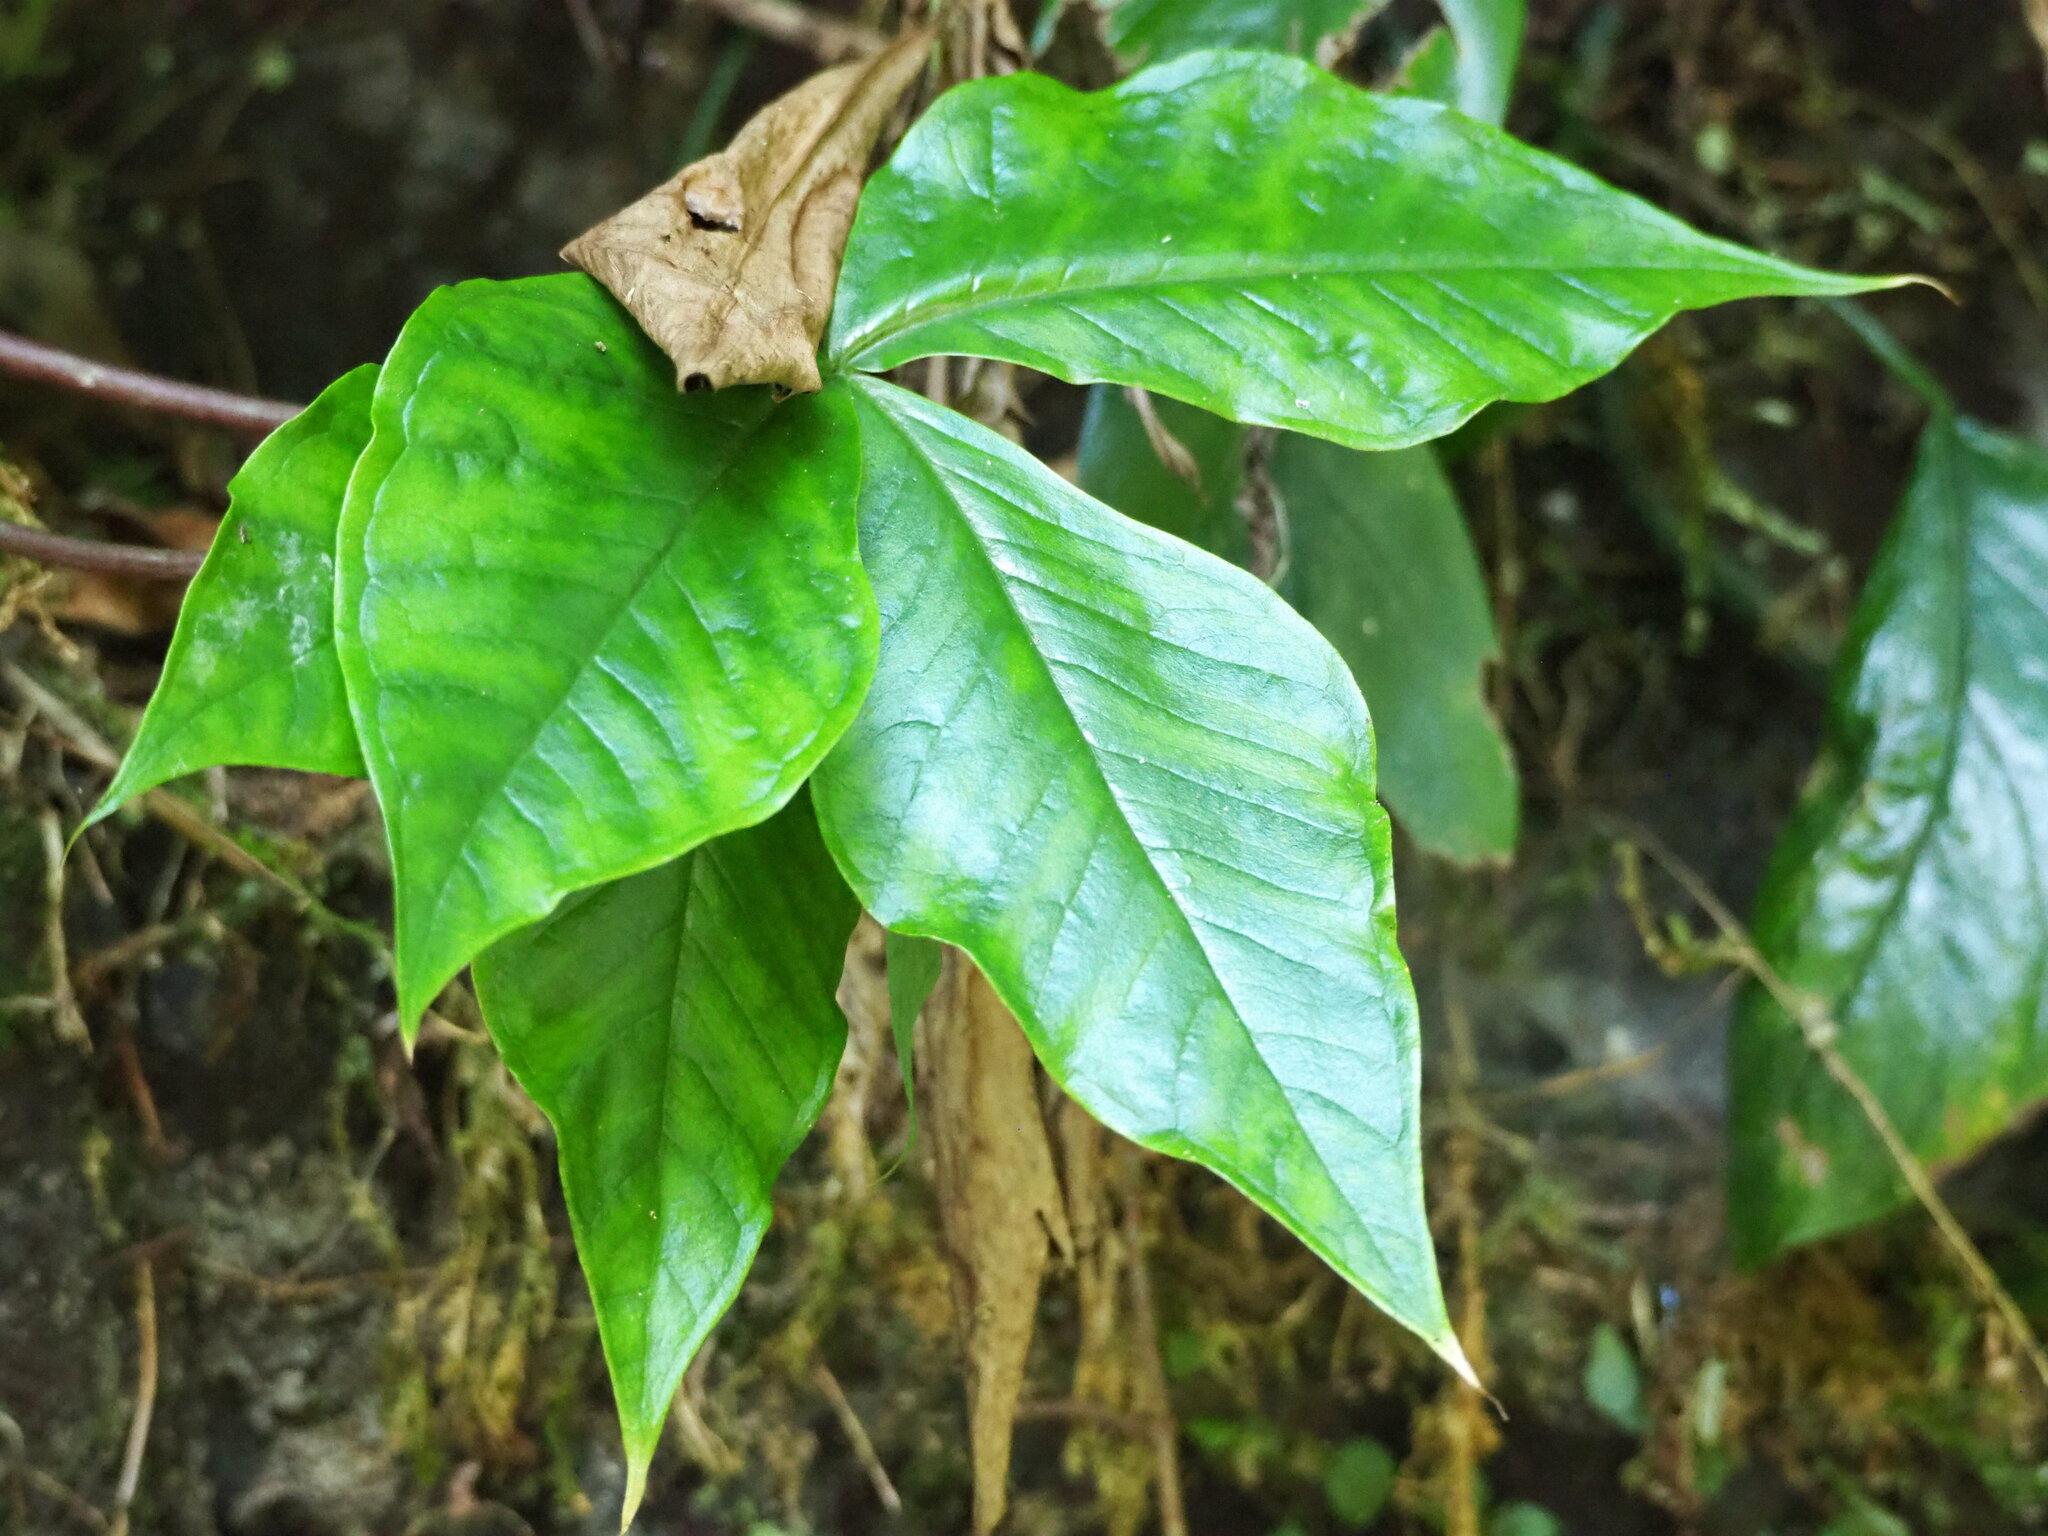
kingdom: Plantae
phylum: Tracheophyta
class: Liliopsida
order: Alismatales
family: Araceae
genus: Arisaema
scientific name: Arisaema ringens
